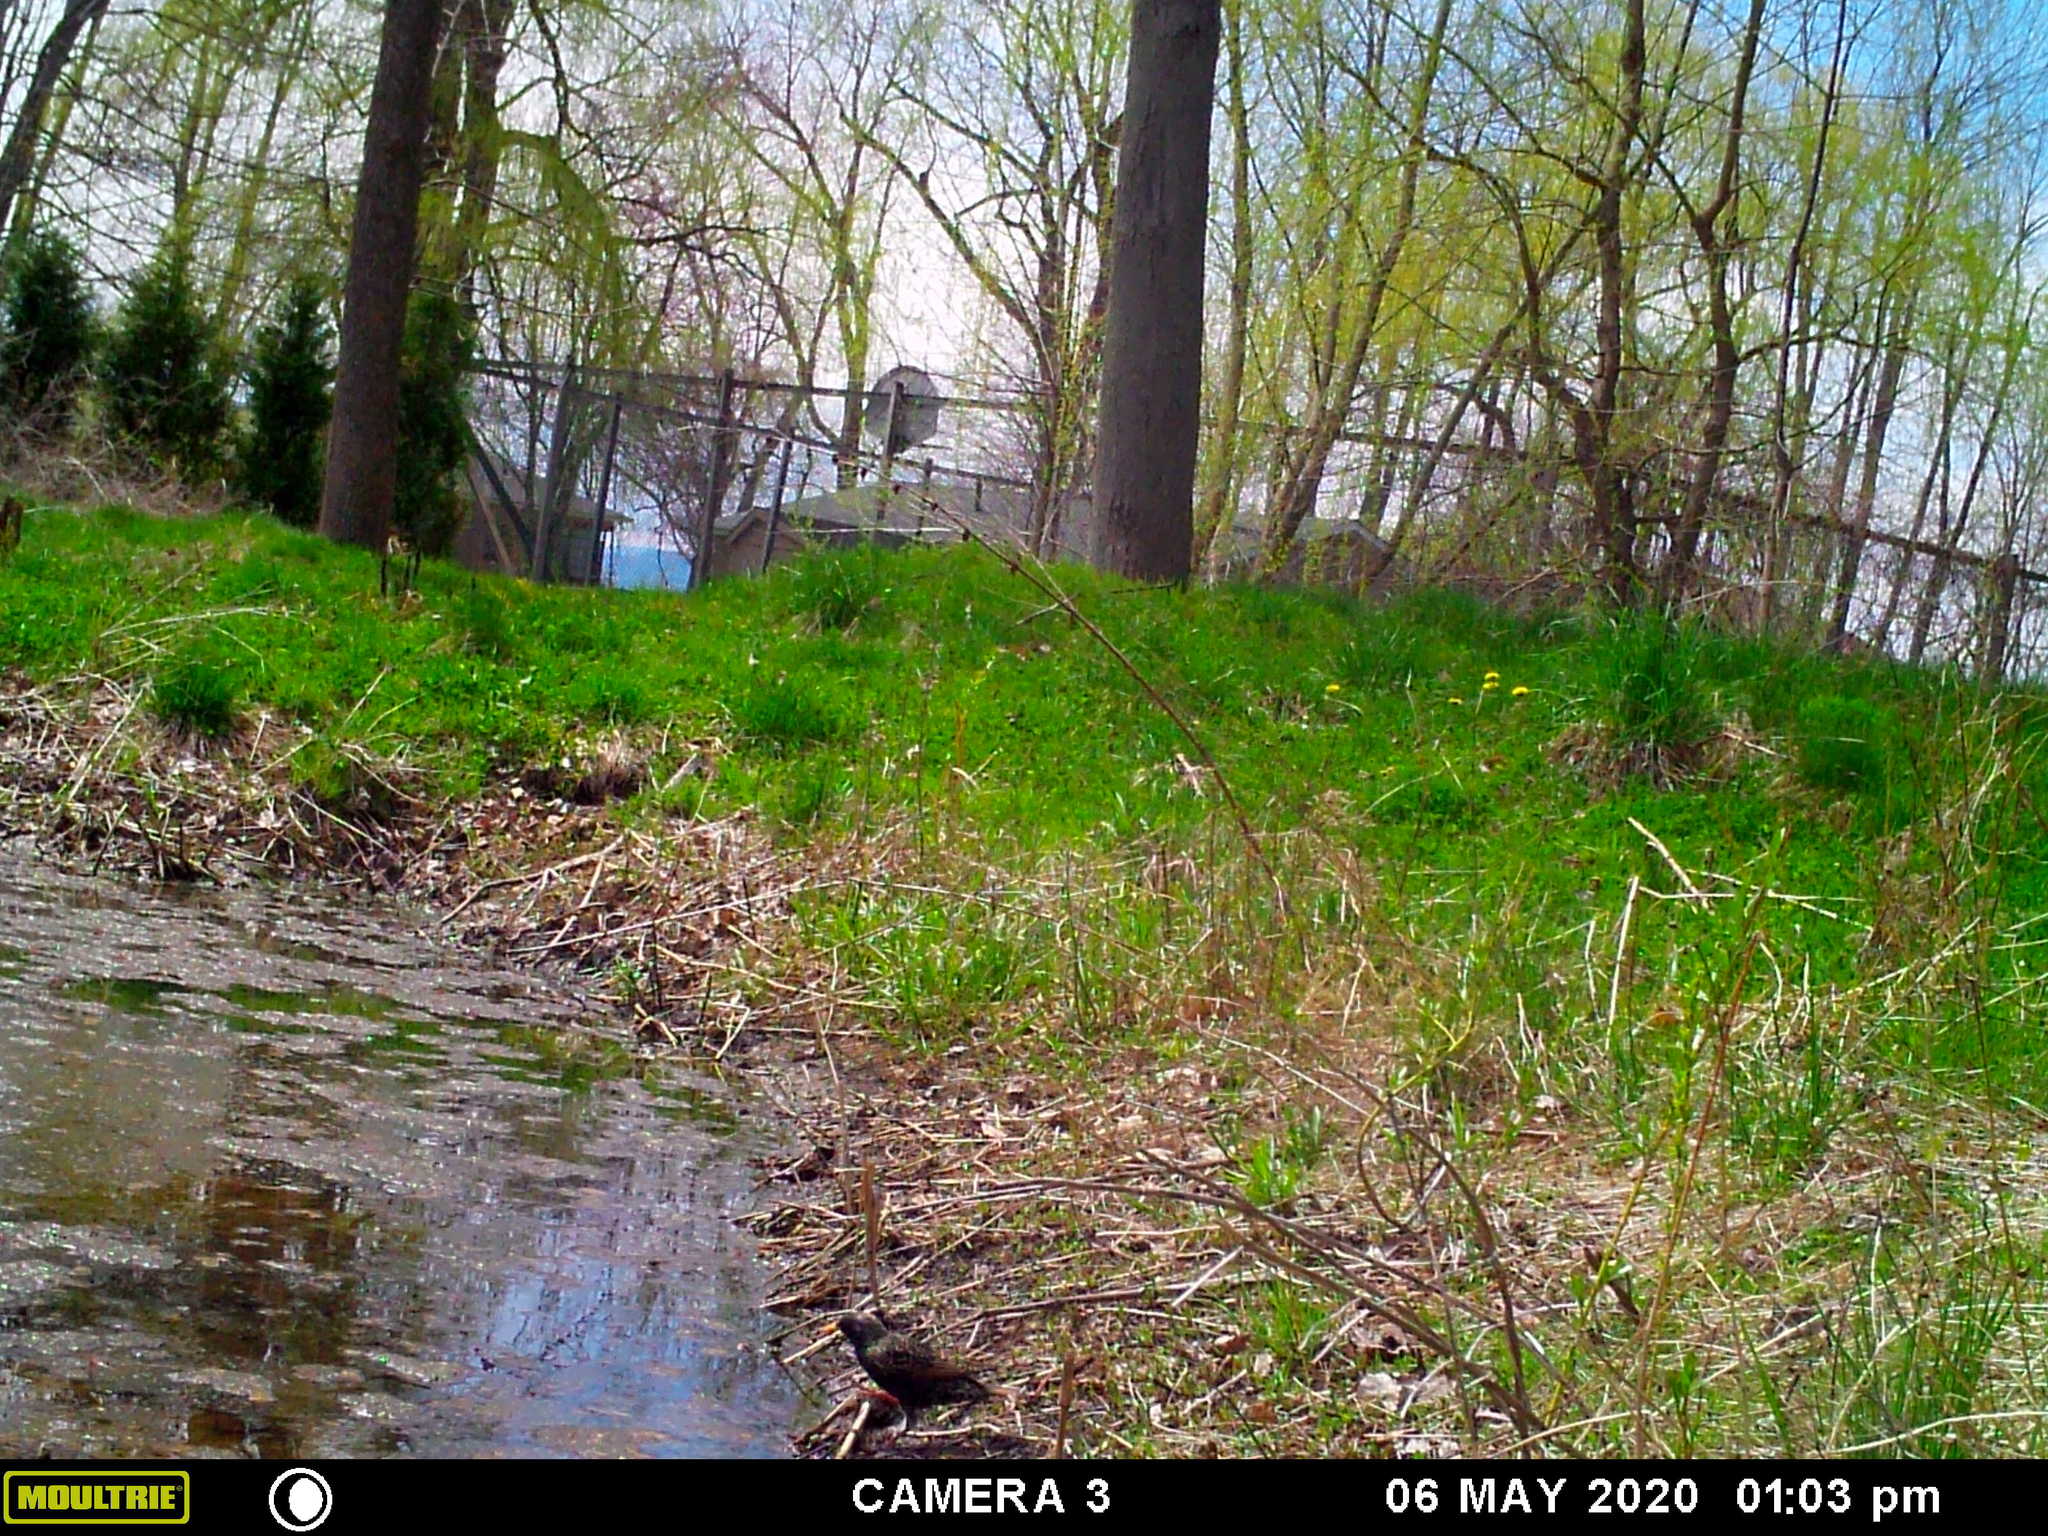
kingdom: Animalia
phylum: Chordata
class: Aves
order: Passeriformes
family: Sturnidae
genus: Sturnus
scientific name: Sturnus vulgaris
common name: Common starling
